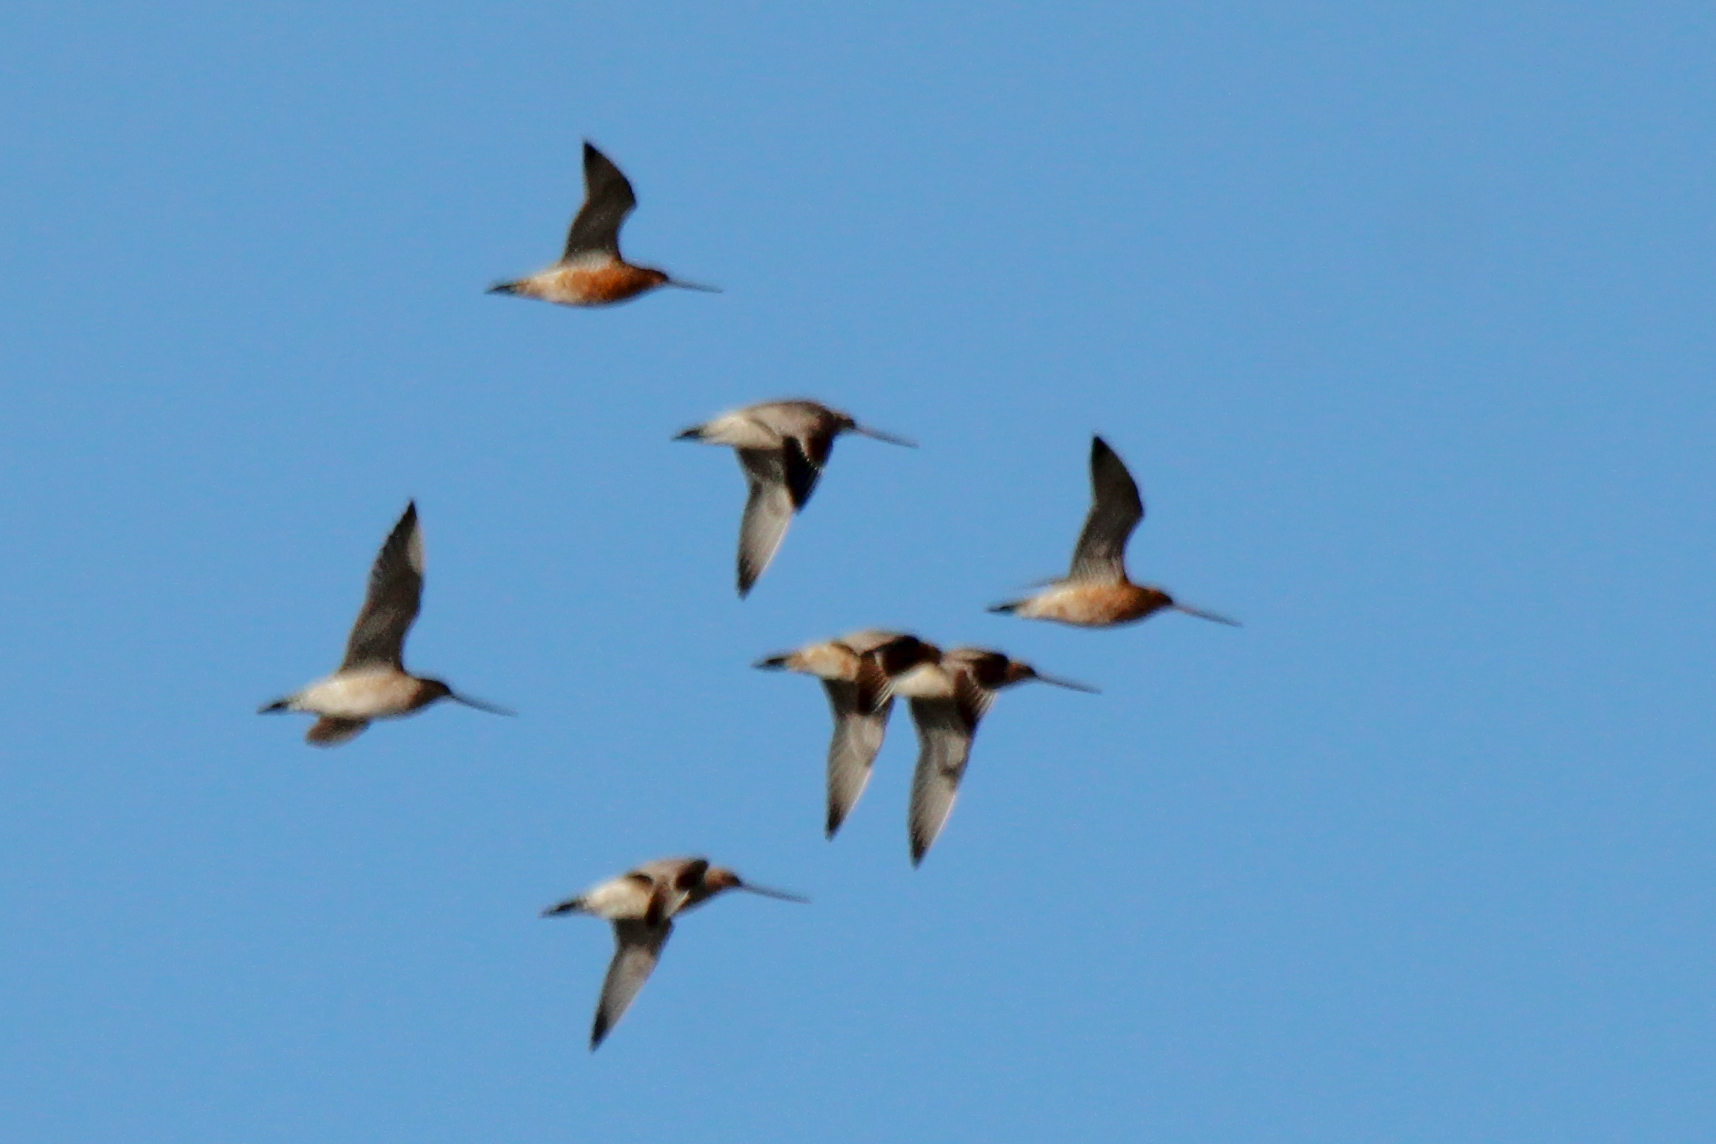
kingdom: Animalia
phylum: Chordata
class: Aves
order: Charadriiformes
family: Scolopacidae
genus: Limosa
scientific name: Limosa lapponica
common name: Bar-tailed godwit
